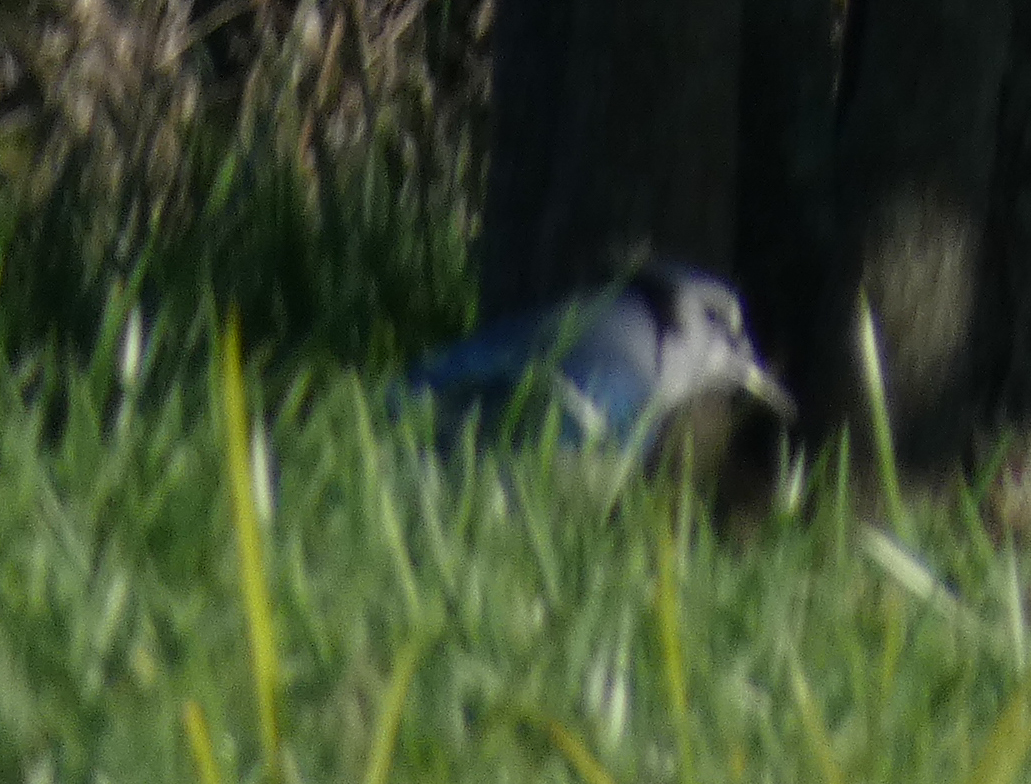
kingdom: Animalia
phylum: Chordata
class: Aves
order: Passeriformes
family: Corvidae
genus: Cyanocitta
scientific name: Cyanocitta cristata
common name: Blue jay
